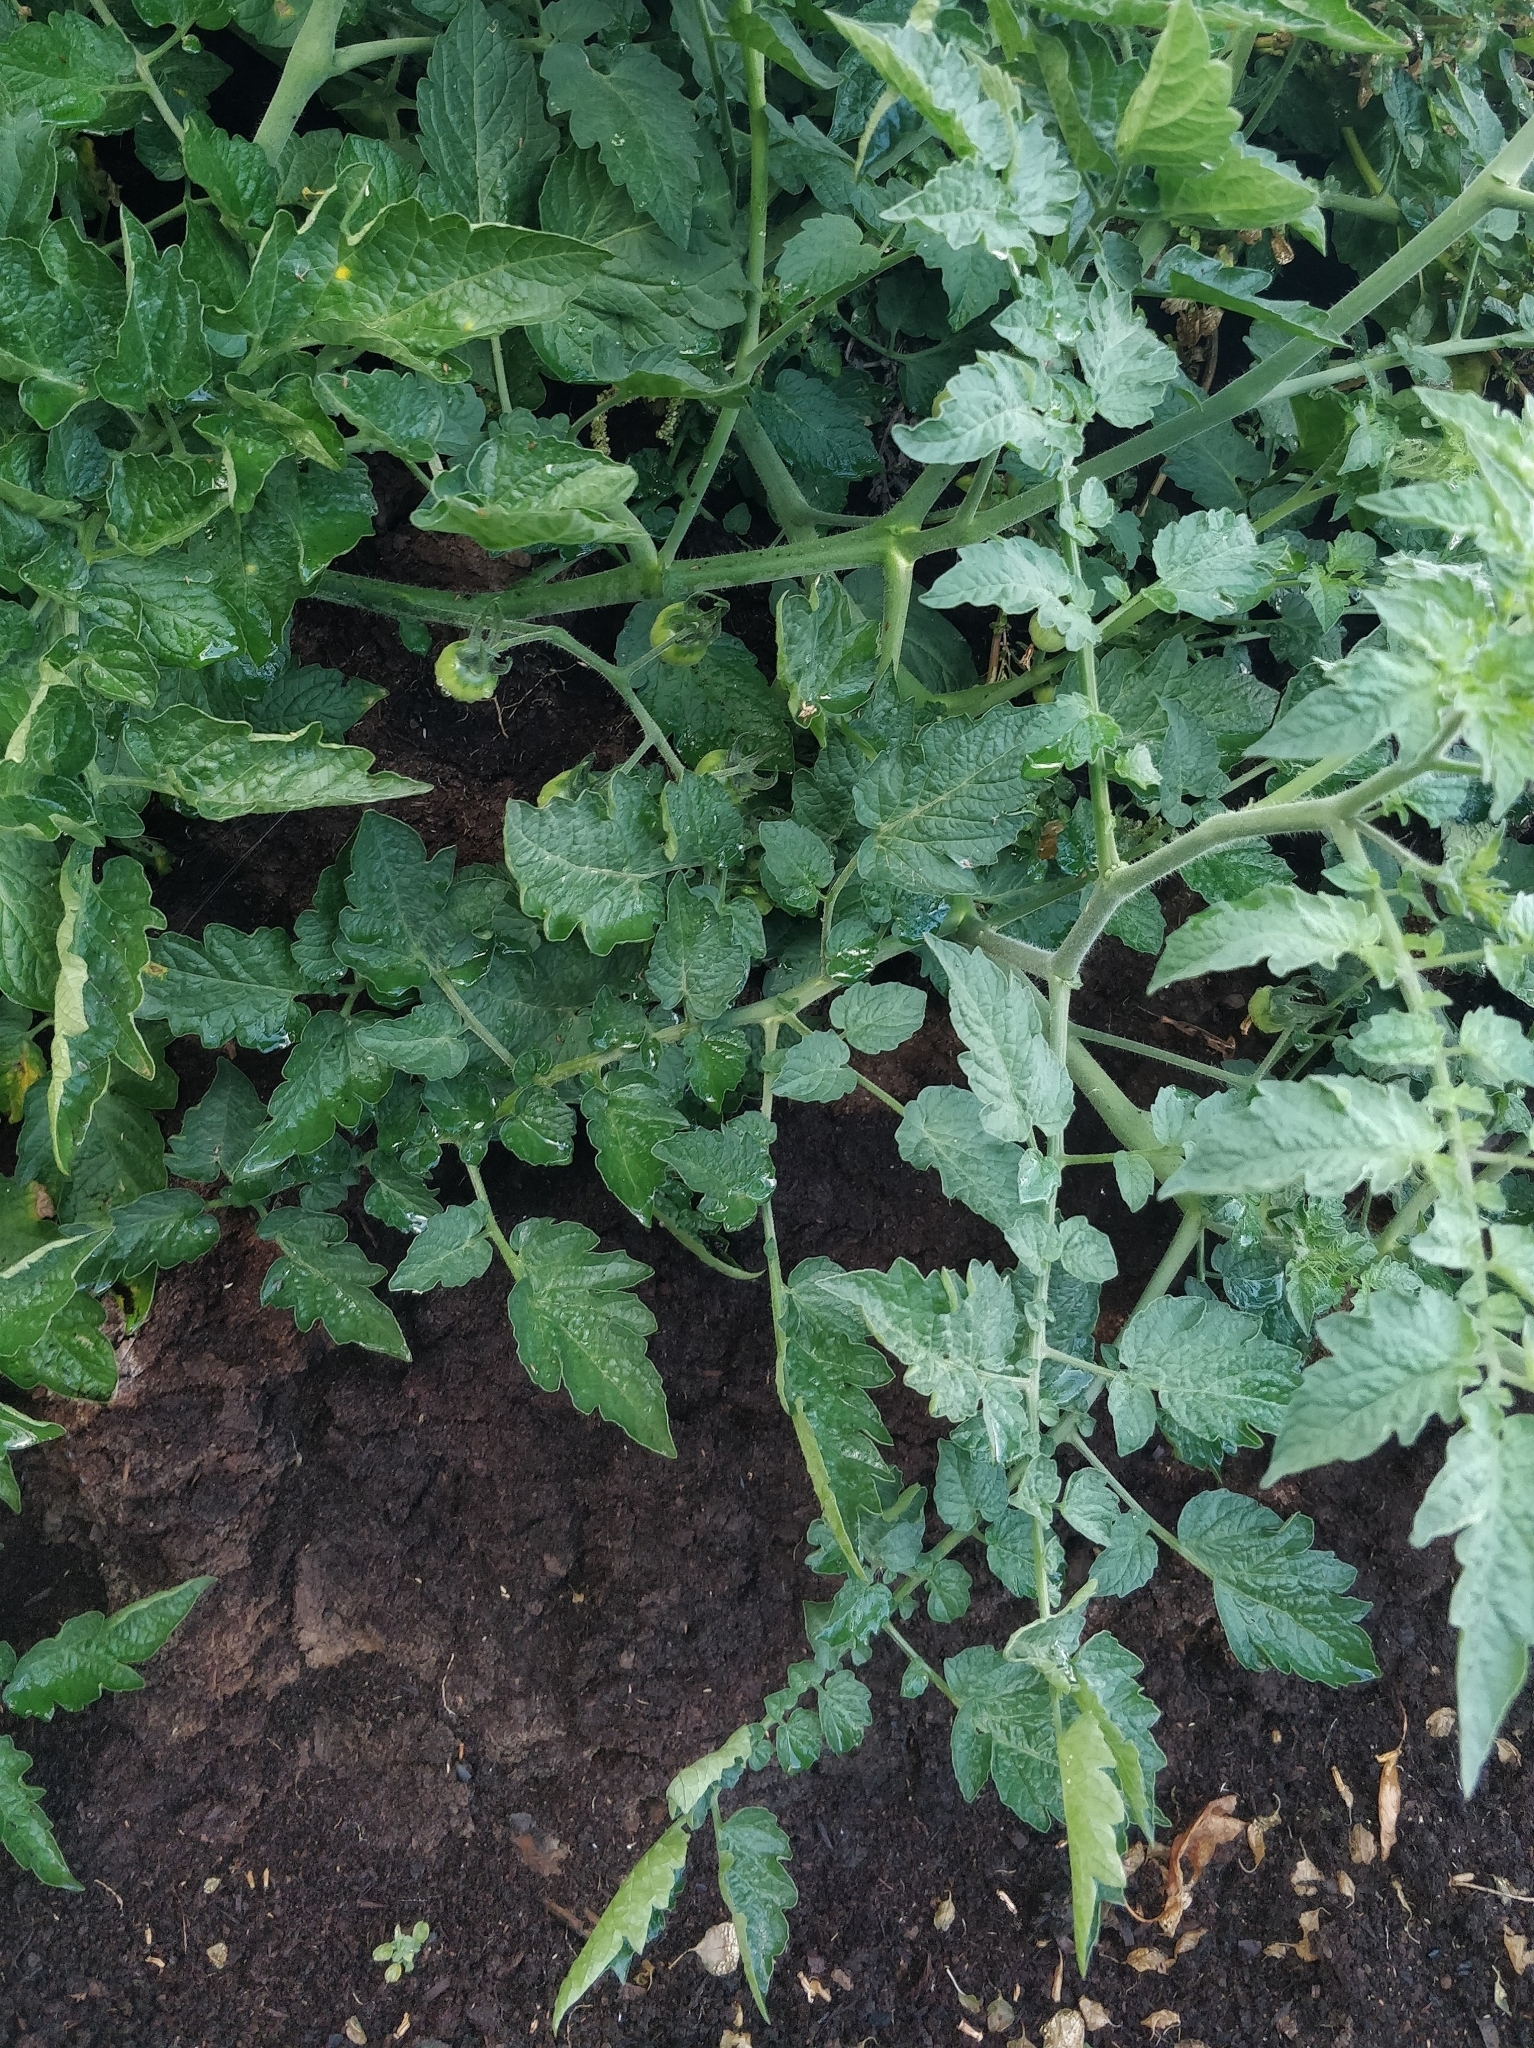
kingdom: Plantae
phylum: Tracheophyta
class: Magnoliopsida
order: Solanales
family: Solanaceae
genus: Solanum
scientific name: Solanum lycopersicum
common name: Garden tomato
